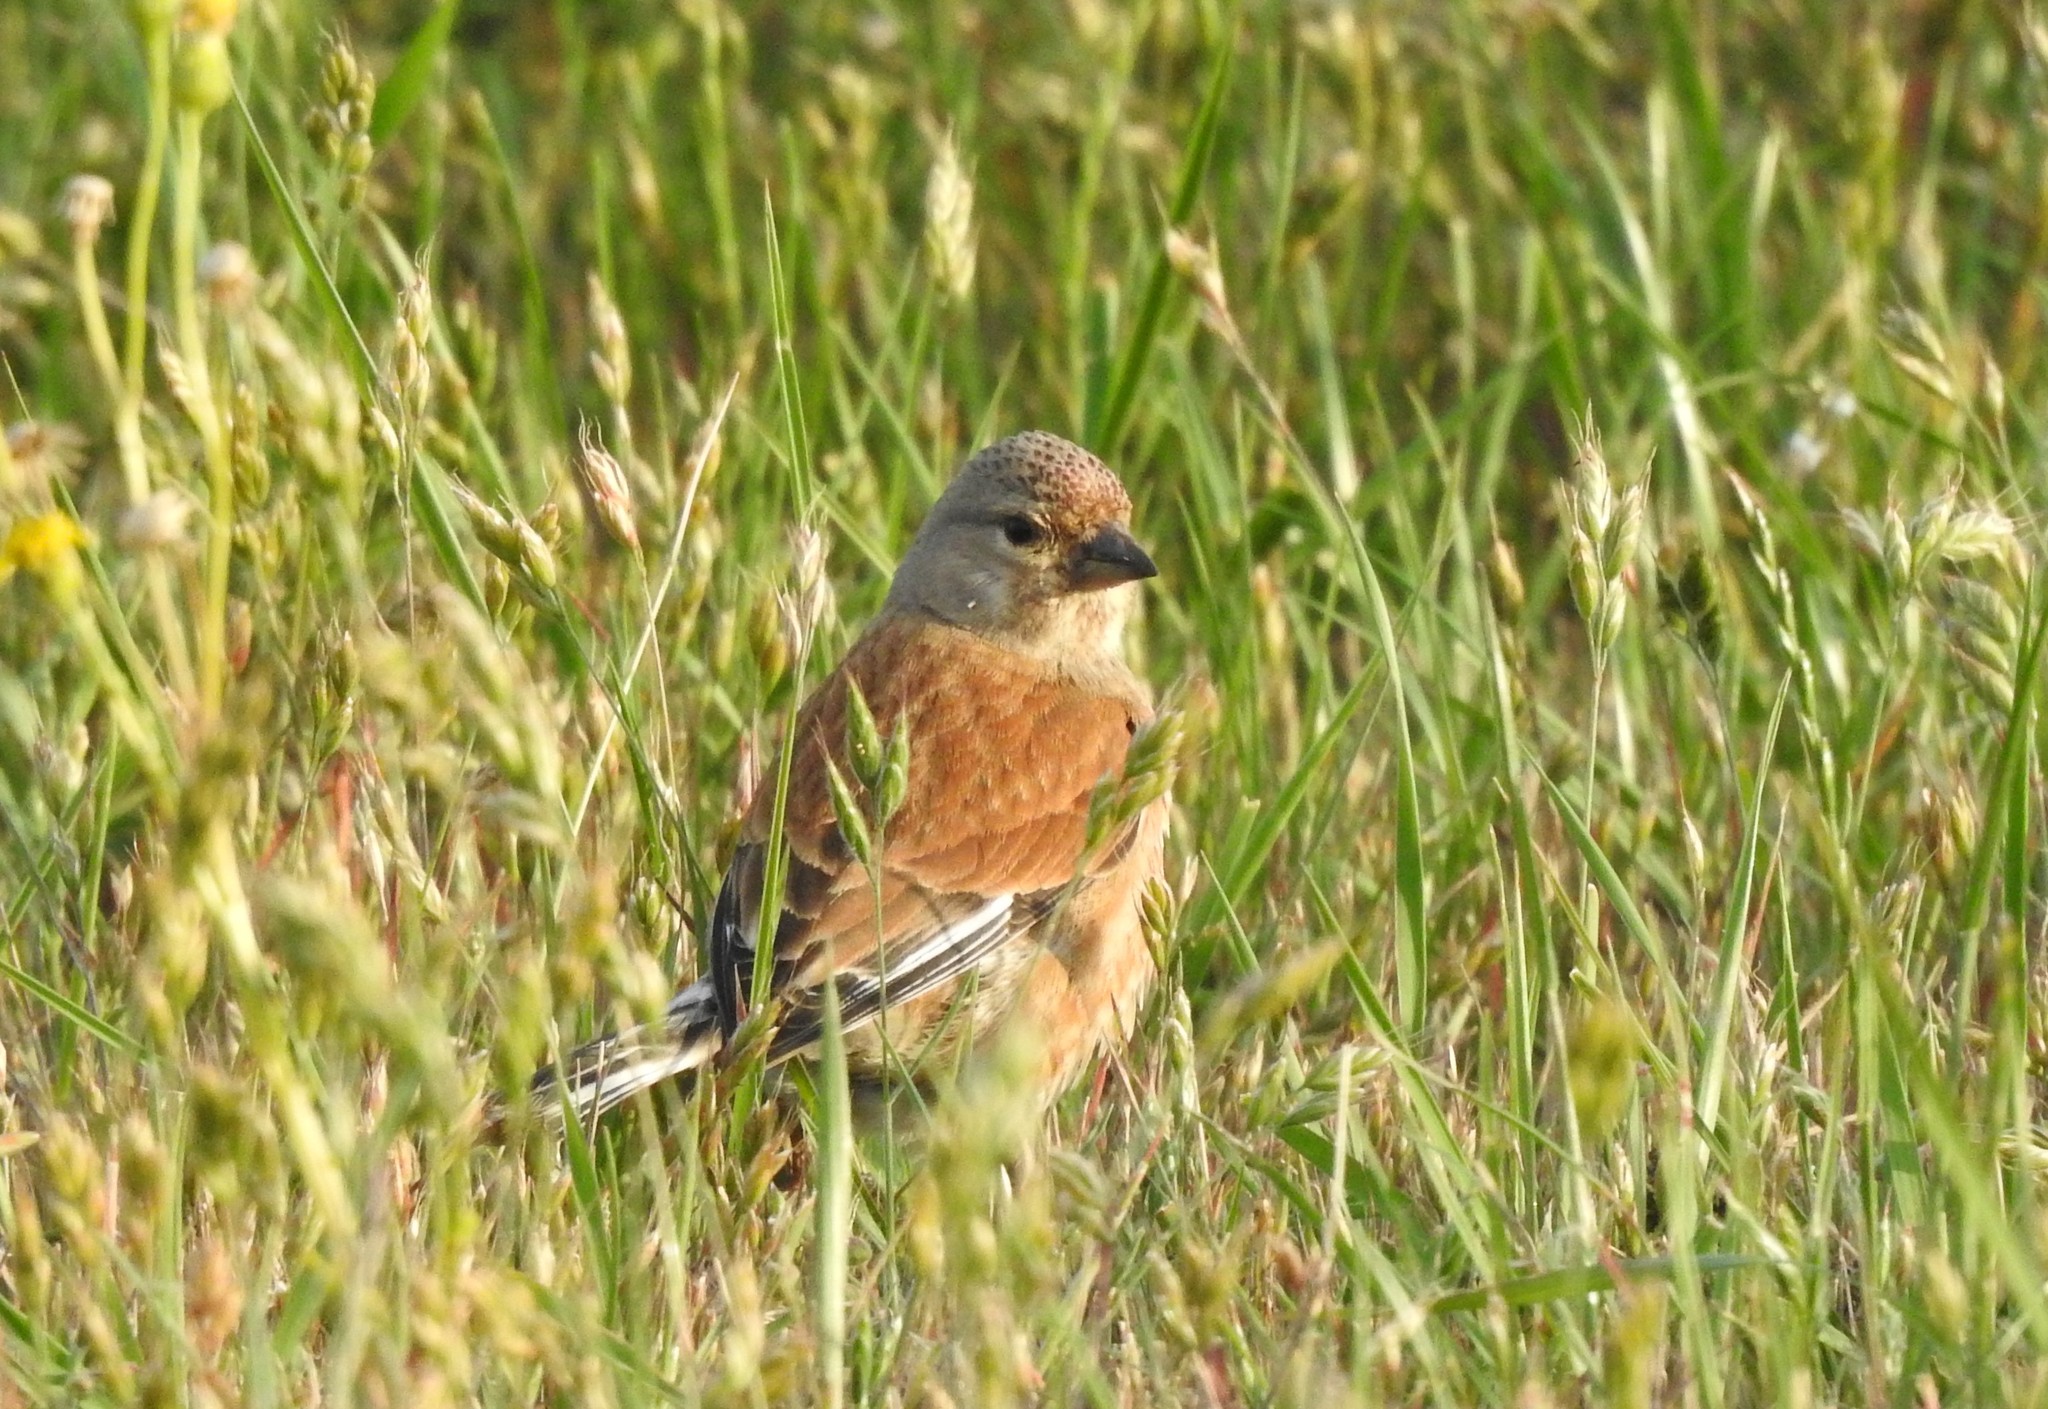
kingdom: Animalia
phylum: Chordata
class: Aves
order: Passeriformes
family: Fringillidae
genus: Linaria
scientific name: Linaria cannabina
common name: Common linnet
